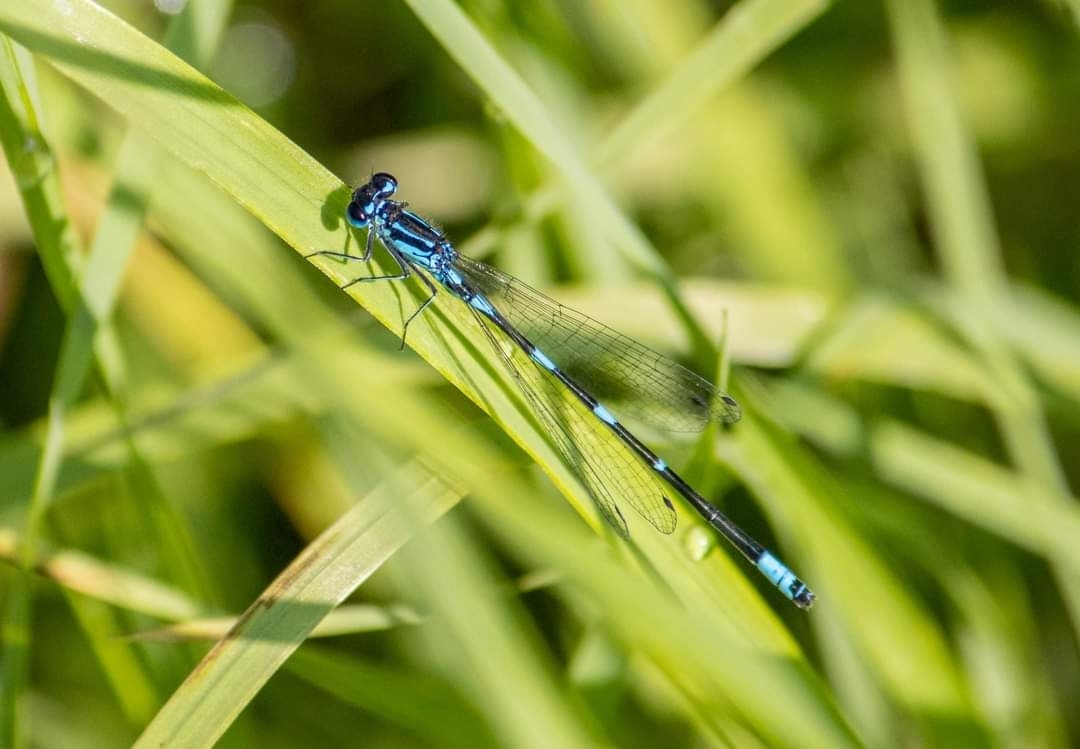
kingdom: Animalia
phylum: Arthropoda
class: Insecta
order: Odonata
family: Coenagrionidae
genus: Coenagrion
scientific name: Coenagrion pulchellum
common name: Variable bluet
